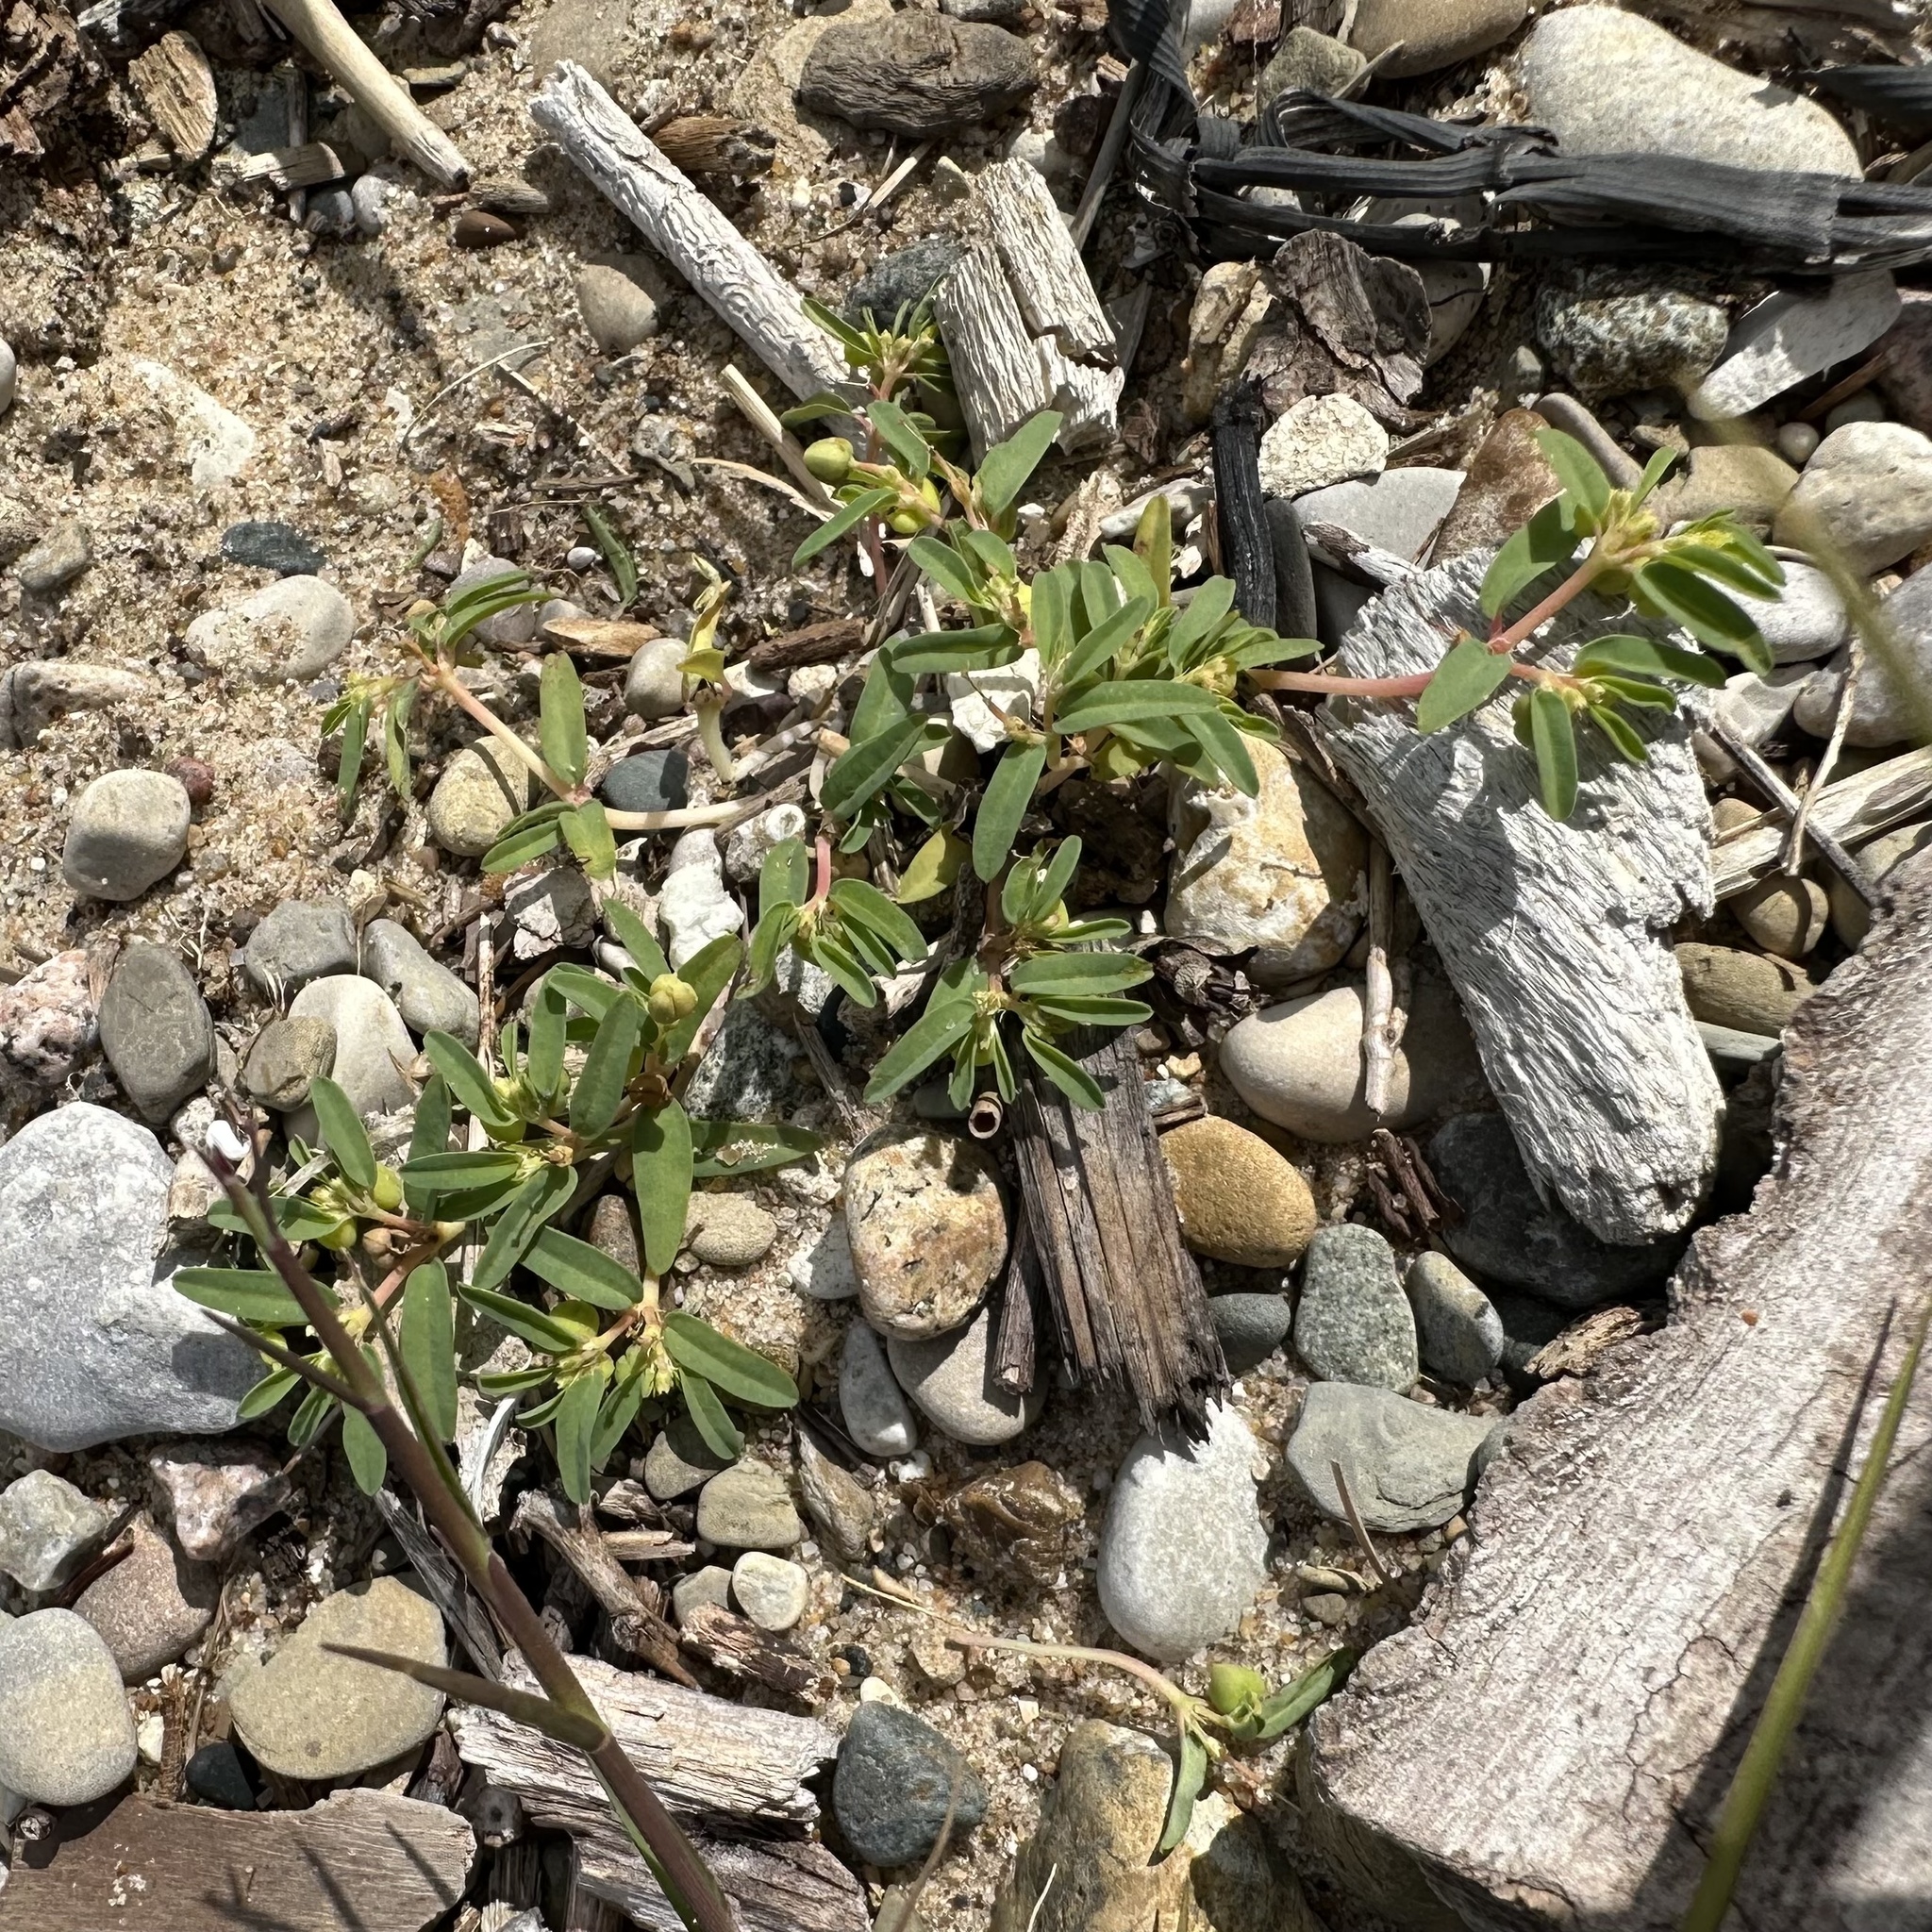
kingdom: Plantae
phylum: Tracheophyta
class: Magnoliopsida
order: Malpighiales
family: Euphorbiaceae
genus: Euphorbia
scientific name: Euphorbia polygonifolia
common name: Knotweed spurge
